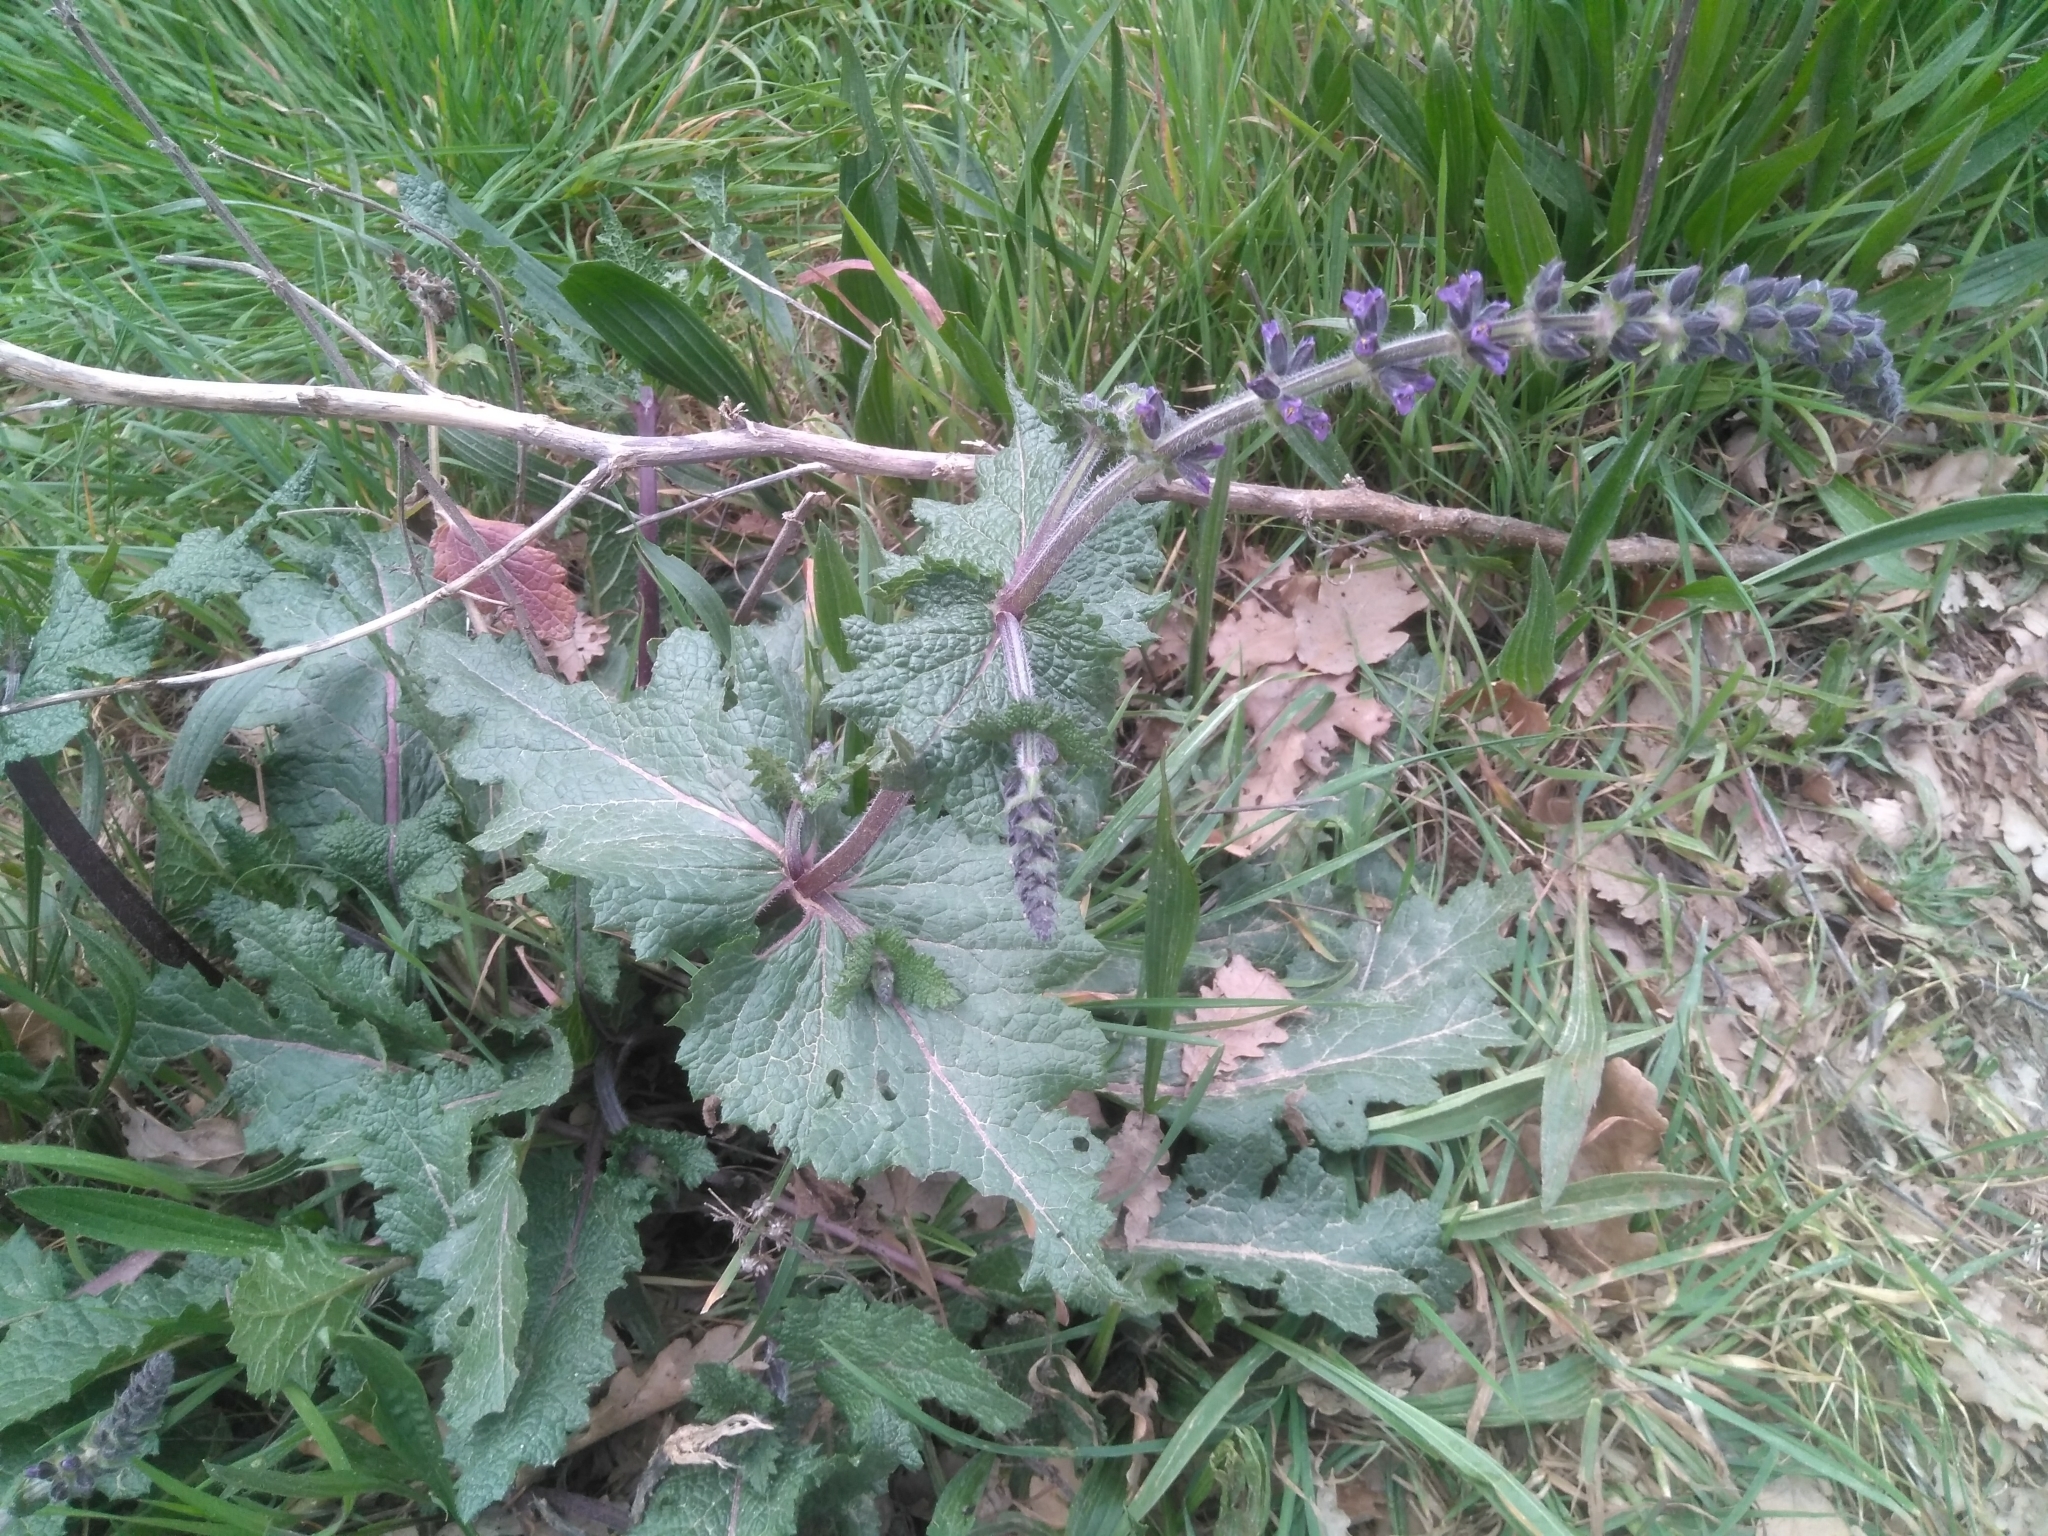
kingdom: Plantae
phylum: Tracheophyta
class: Magnoliopsida
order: Lamiales
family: Lamiaceae
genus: Salvia
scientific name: Salvia verbenaca
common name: Wild clary
